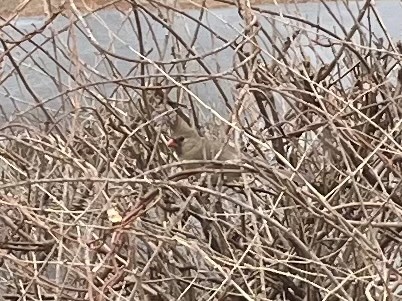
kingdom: Animalia
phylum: Chordata
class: Aves
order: Passeriformes
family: Cardinalidae
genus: Cardinalis
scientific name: Cardinalis cardinalis
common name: Northern cardinal
